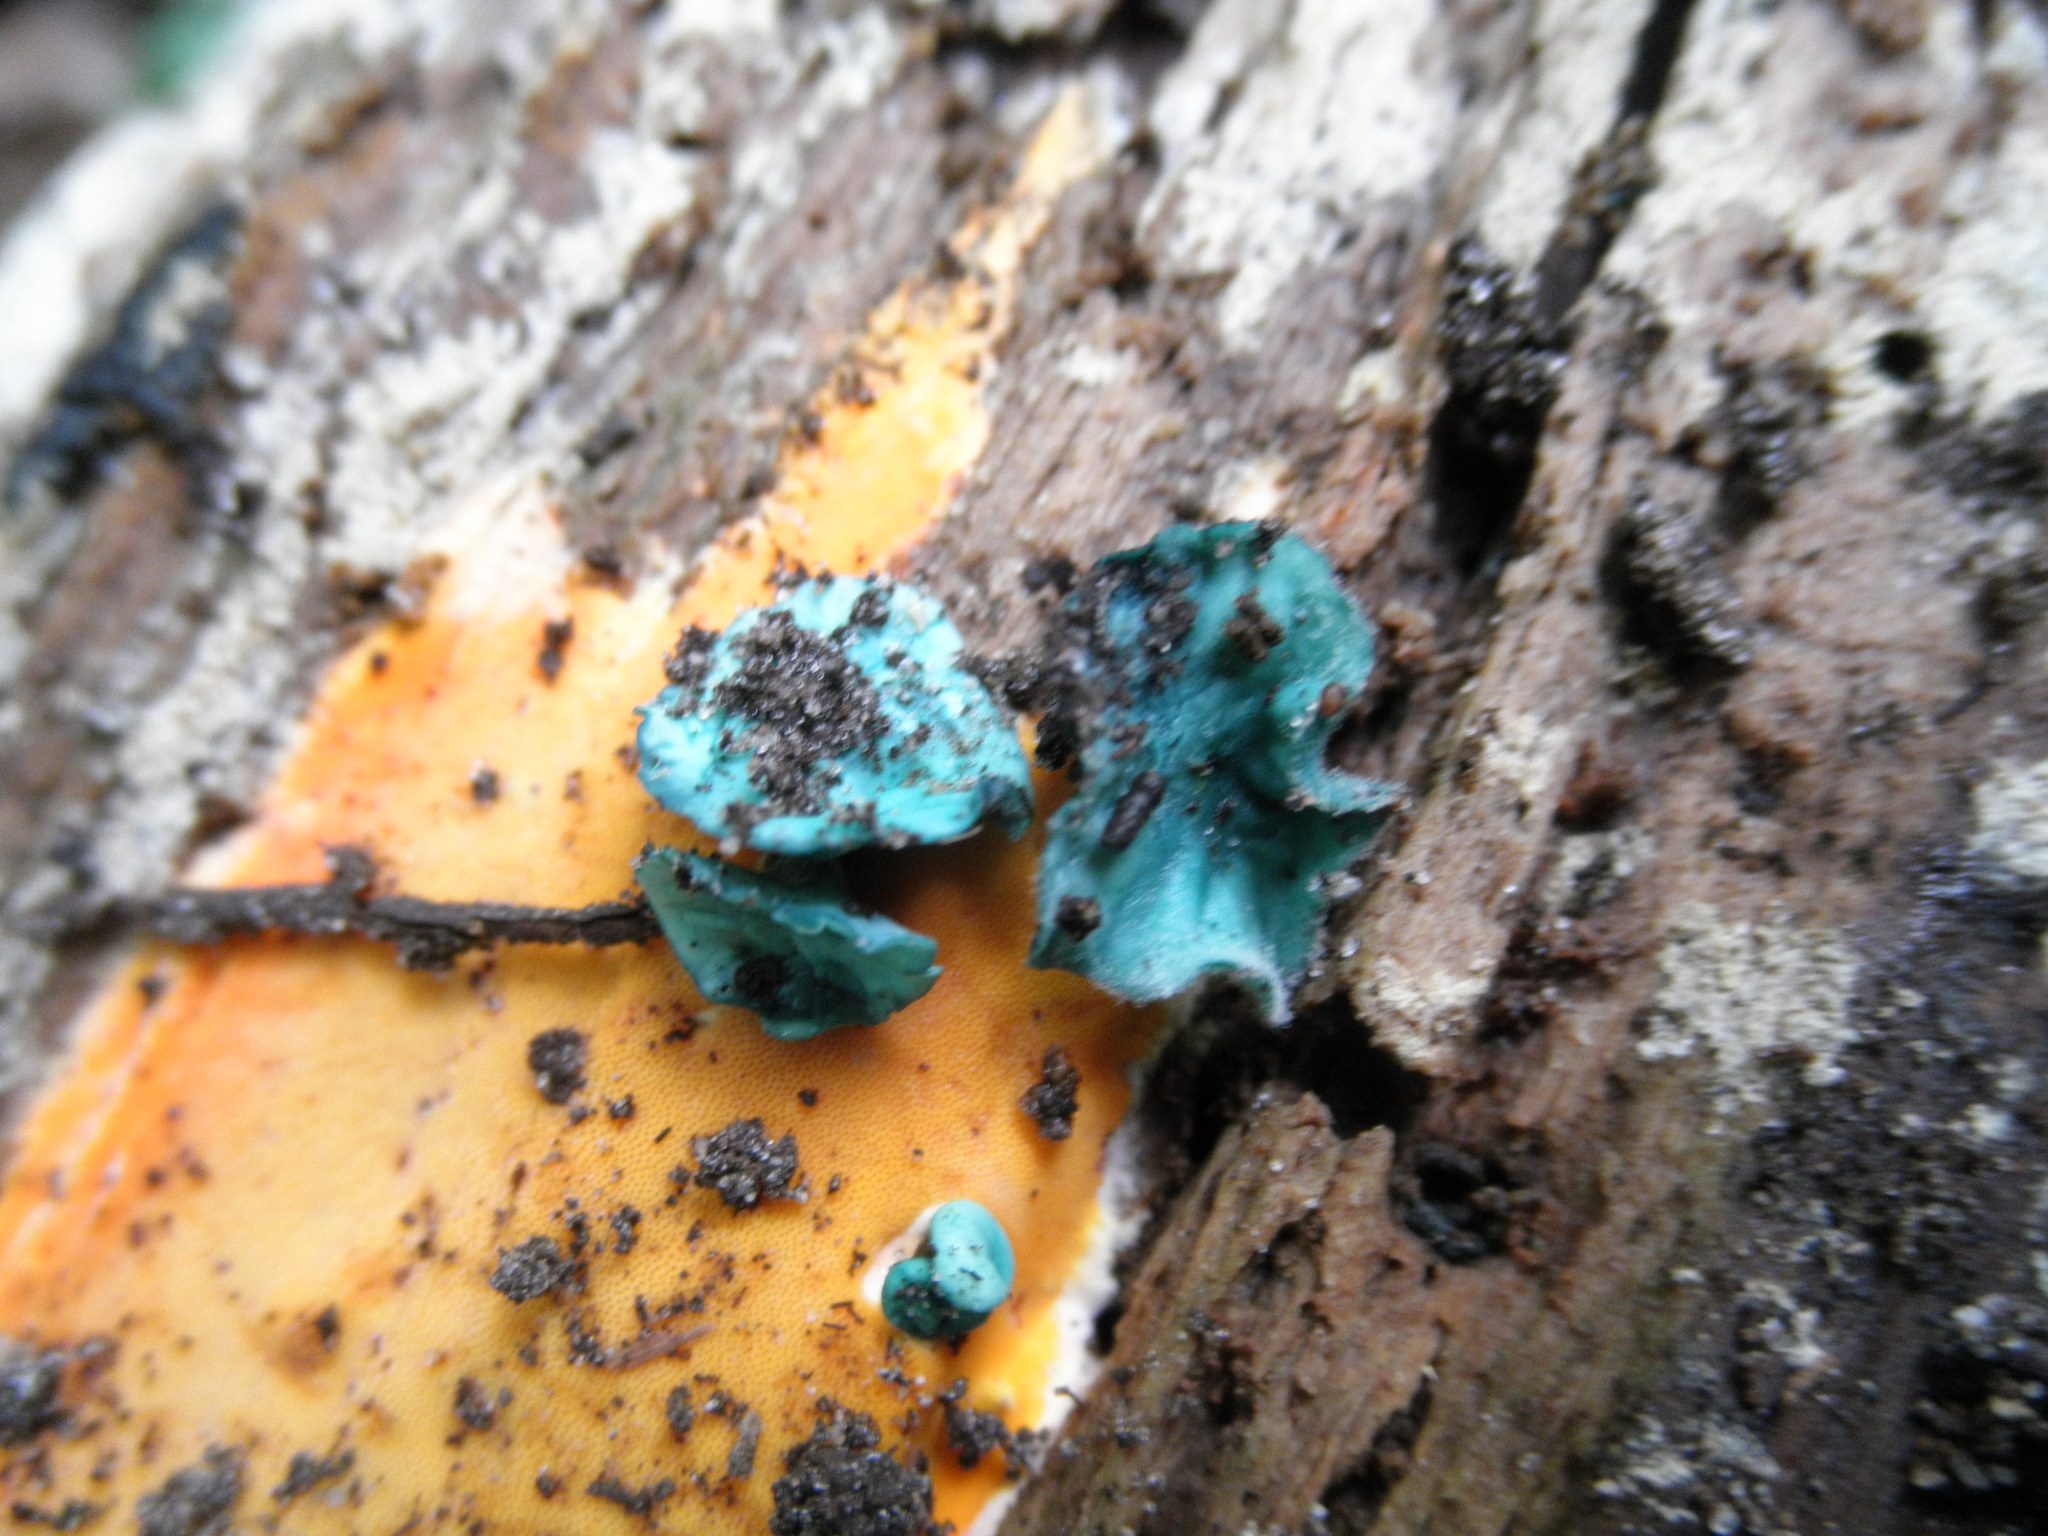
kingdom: Fungi
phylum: Ascomycota
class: Leotiomycetes
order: Helotiales
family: Chlorociboriaceae
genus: Chlorociboria
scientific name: Chlorociboria
